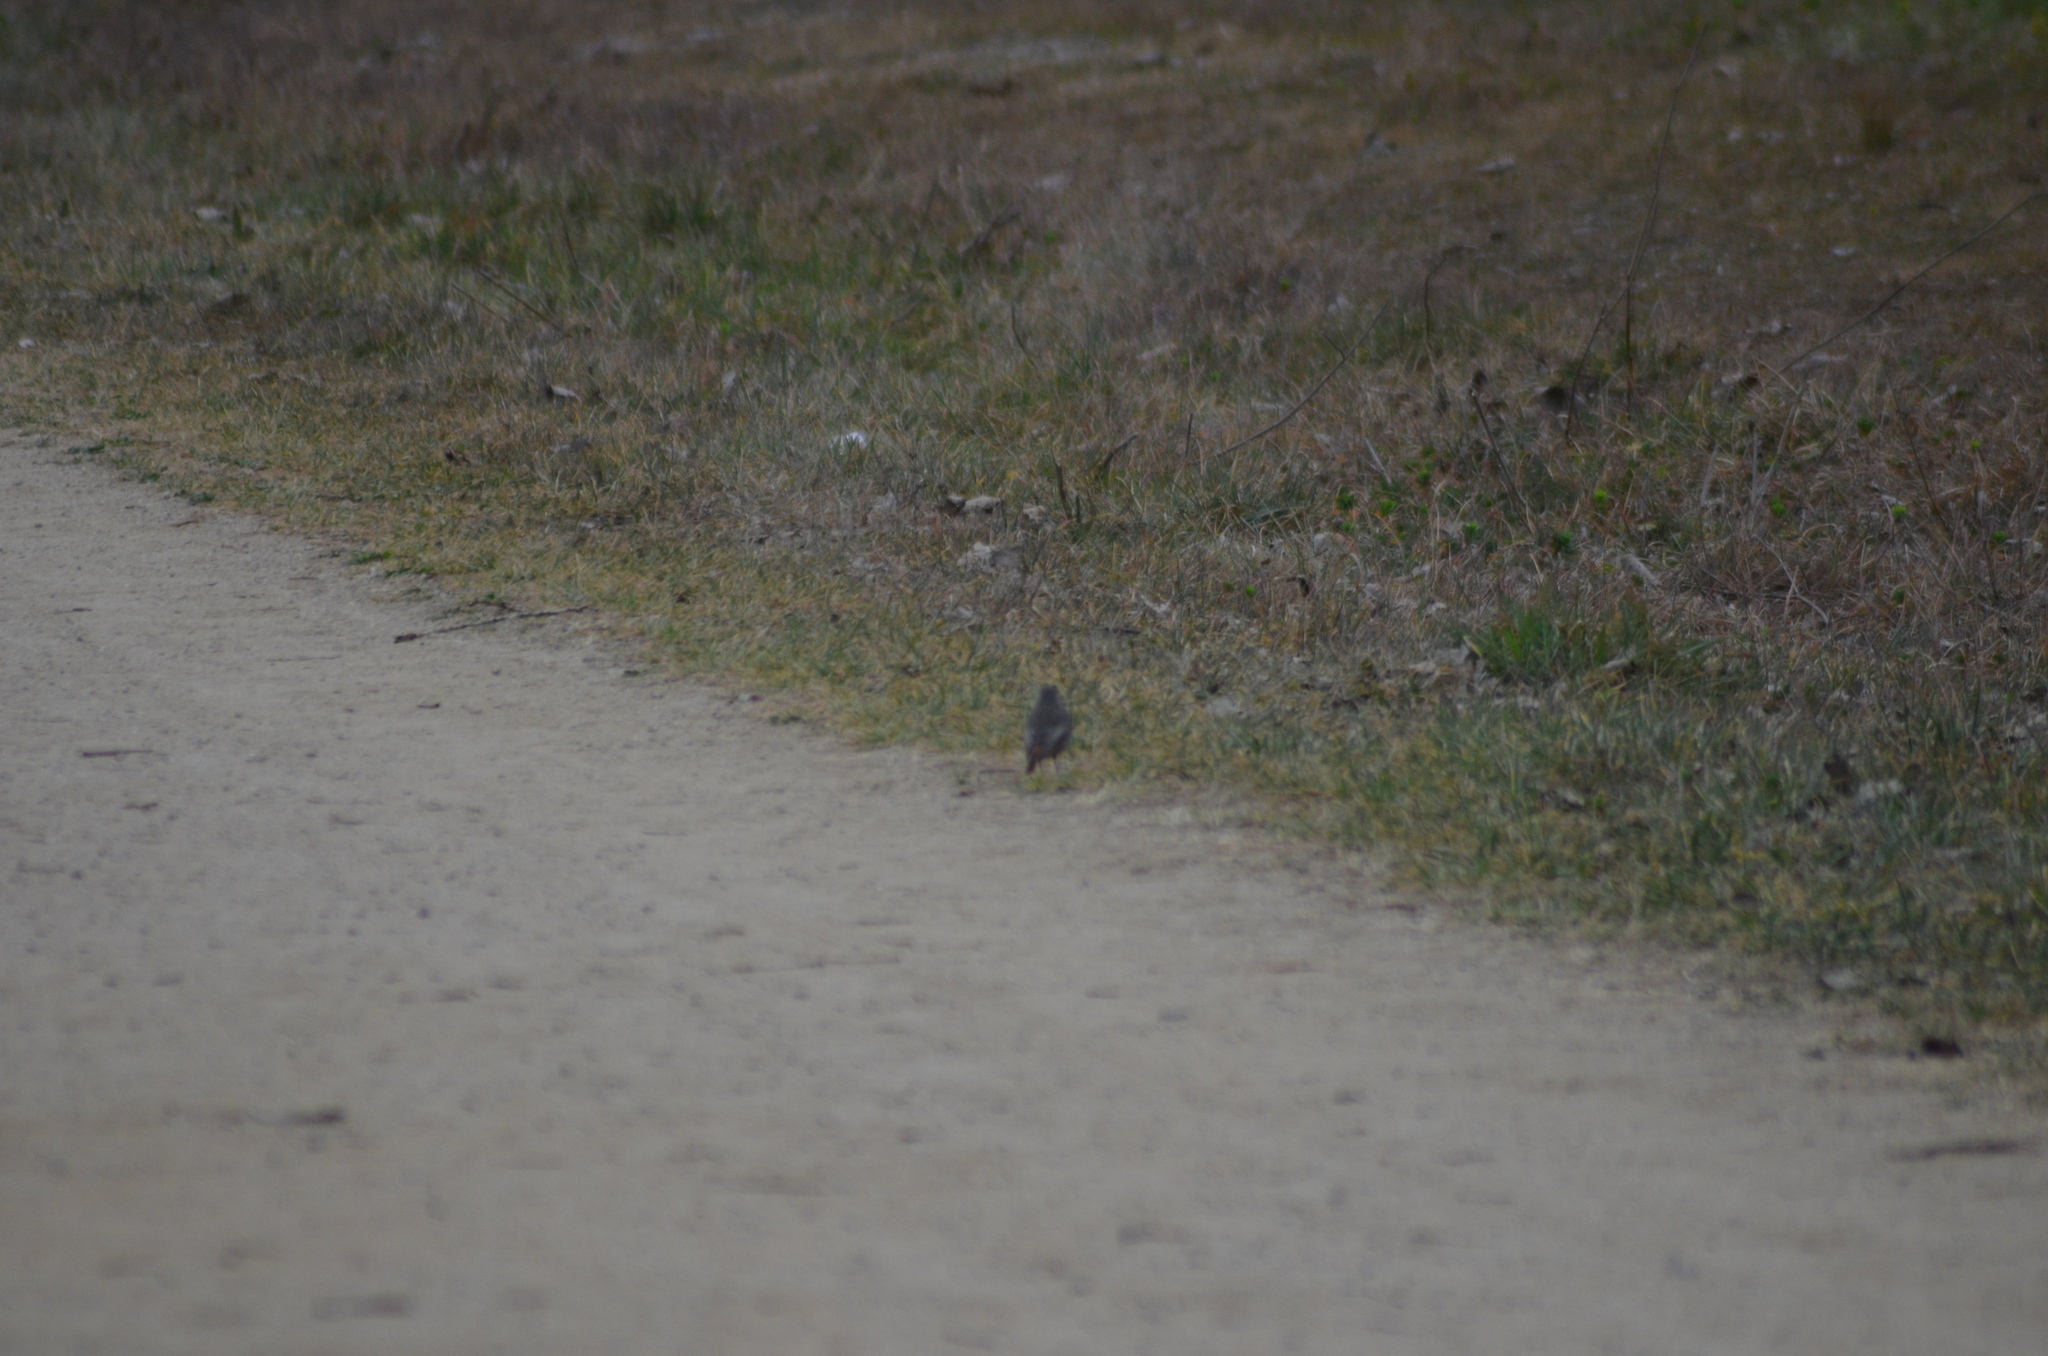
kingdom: Animalia
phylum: Chordata
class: Aves
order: Passeriformes
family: Muscicapidae
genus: Phoenicurus
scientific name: Phoenicurus ochruros
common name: Black redstart
